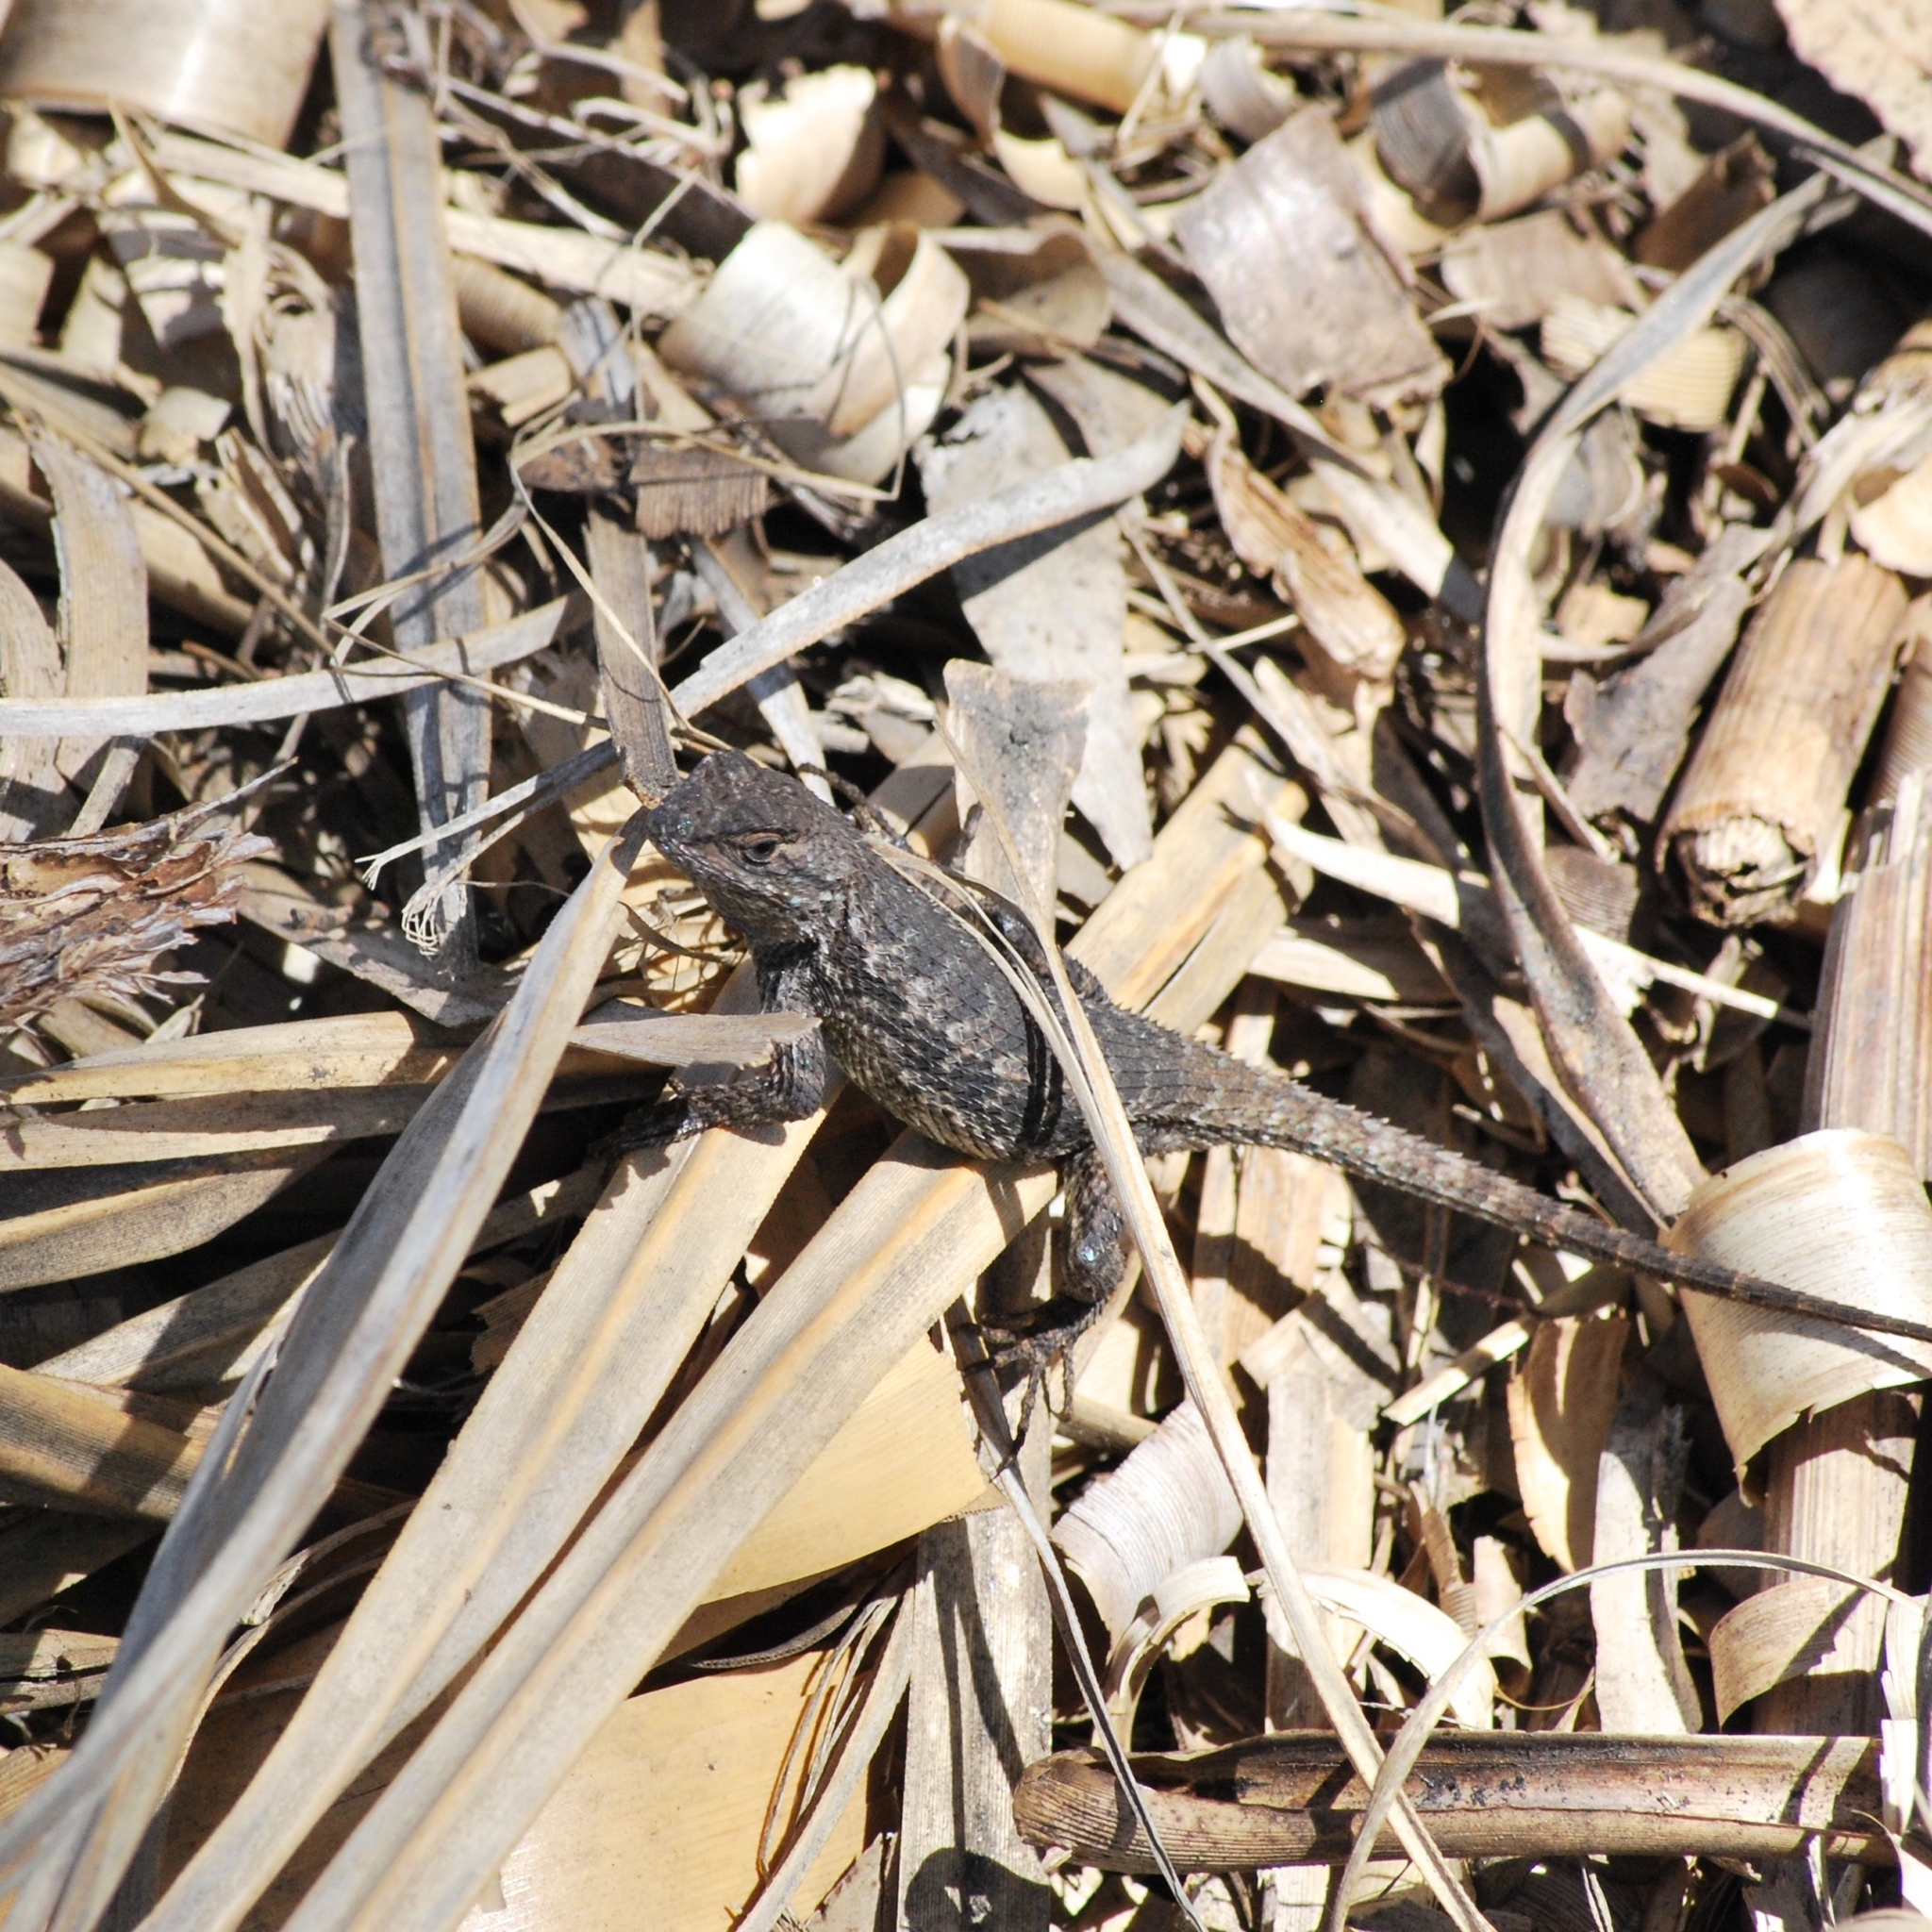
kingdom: Animalia
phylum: Chordata
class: Squamata
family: Phrynosomatidae
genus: Sceloporus
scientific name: Sceloporus occidentalis
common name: Western fence lizard
